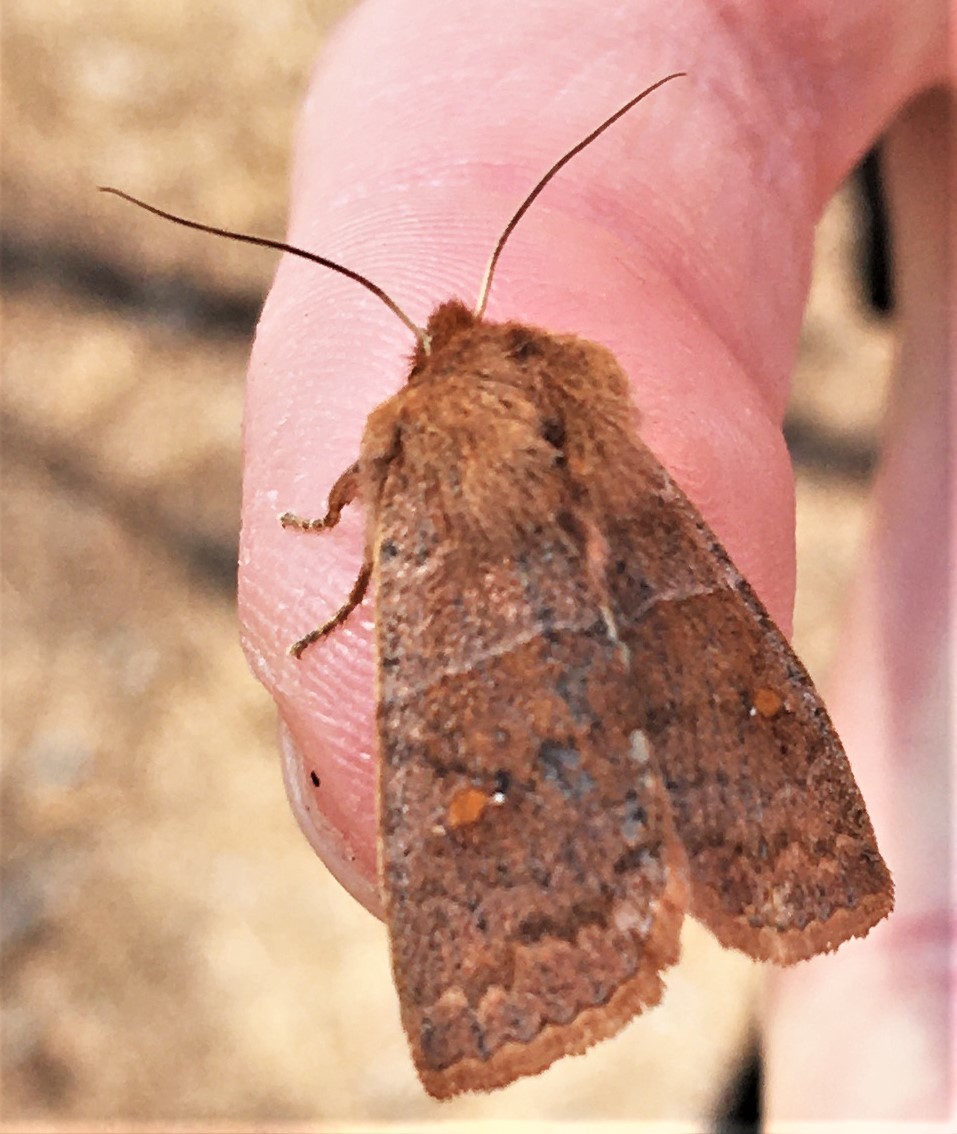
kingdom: Animalia
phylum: Arthropoda
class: Insecta
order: Lepidoptera
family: Noctuidae
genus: Eupsilia
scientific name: Eupsilia vinulenta
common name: Straight-toothed sallow
